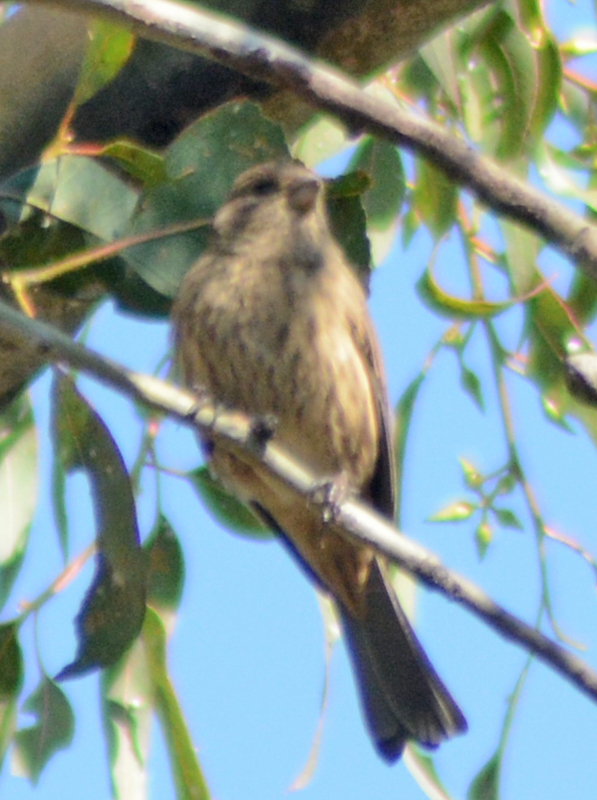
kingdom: Animalia
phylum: Chordata
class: Aves
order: Passeriformes
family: Fringillidae
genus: Haemorhous
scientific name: Haemorhous mexicanus
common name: House finch
